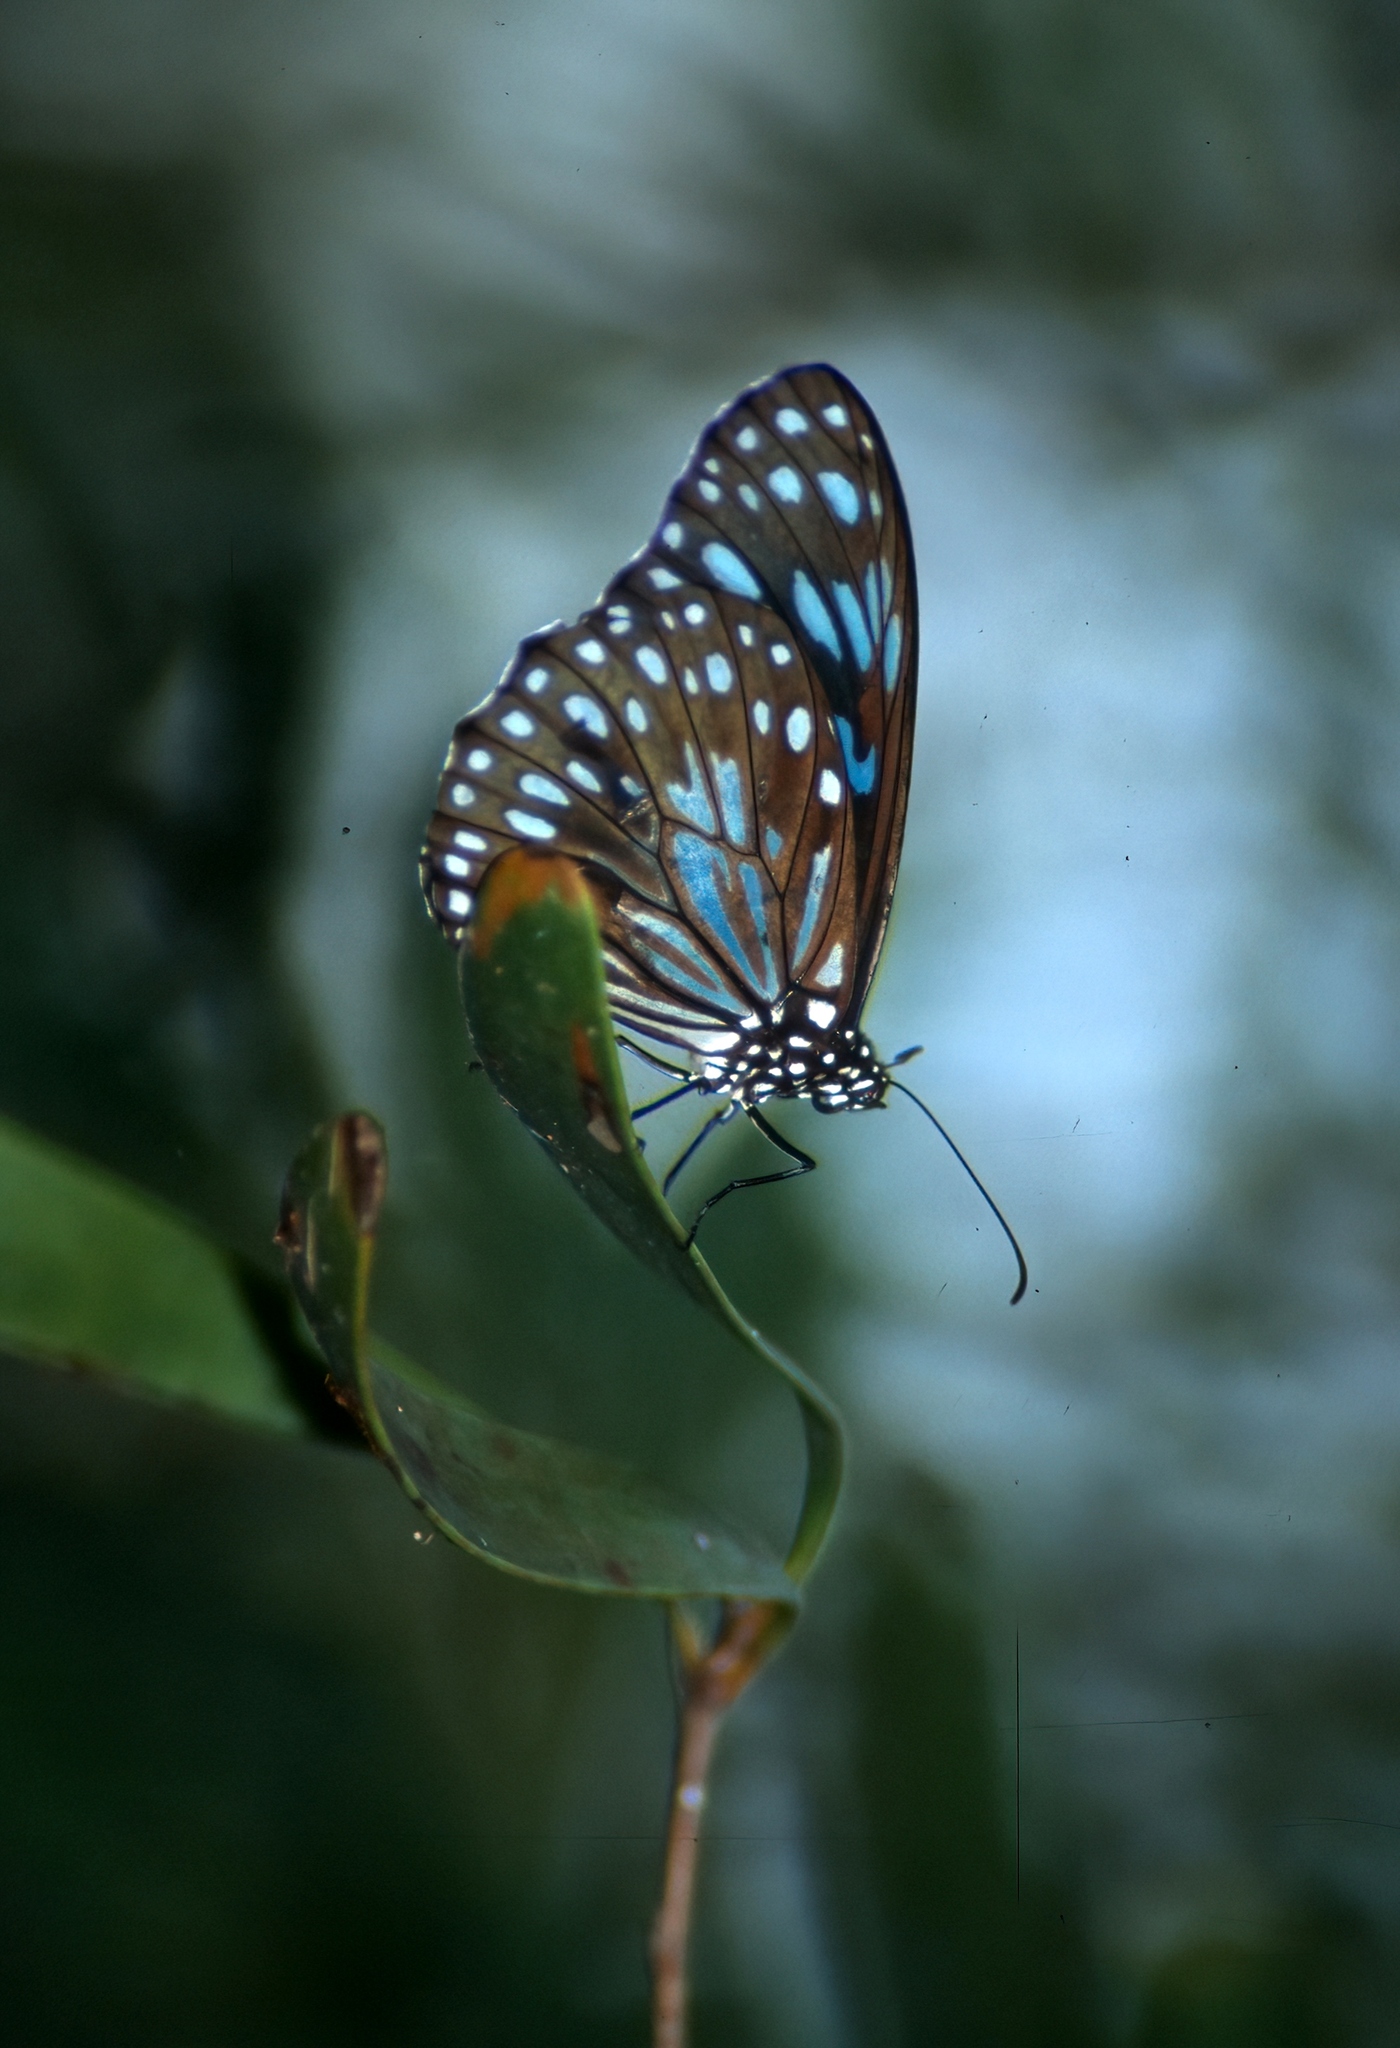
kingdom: Animalia
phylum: Arthropoda
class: Insecta
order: Lepidoptera
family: Nymphalidae
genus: Tirumala
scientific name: Tirumala hamata
